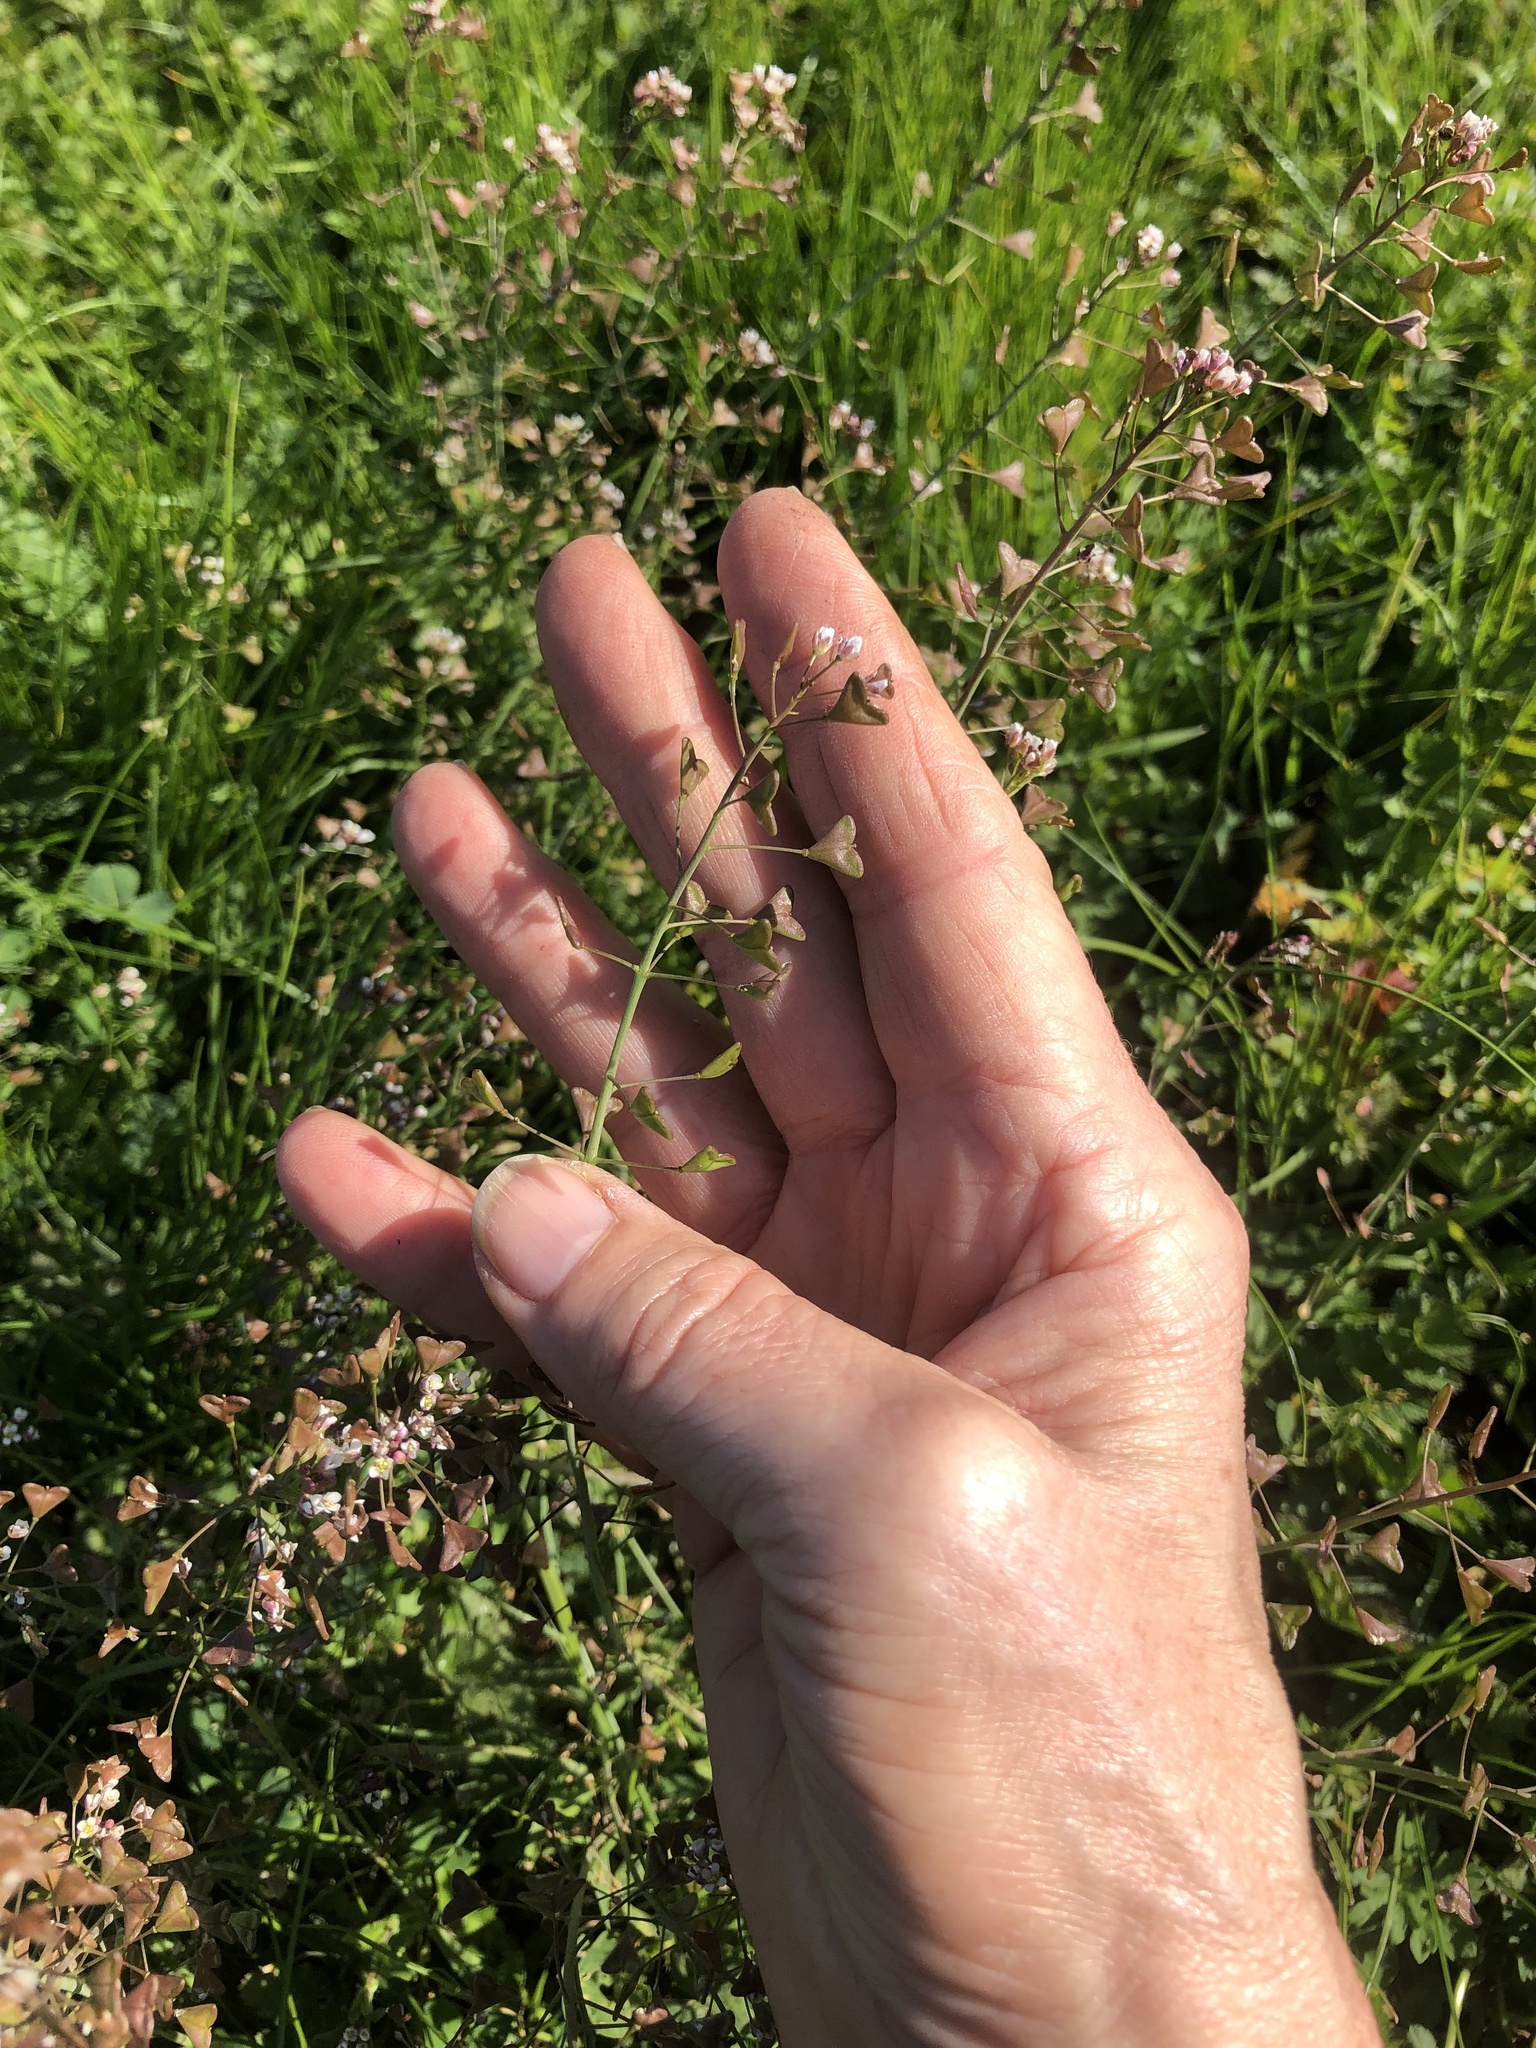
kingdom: Plantae
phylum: Tracheophyta
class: Magnoliopsida
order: Brassicales
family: Brassicaceae
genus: Capsella
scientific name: Capsella bursa-pastoris
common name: Shepherd's purse
